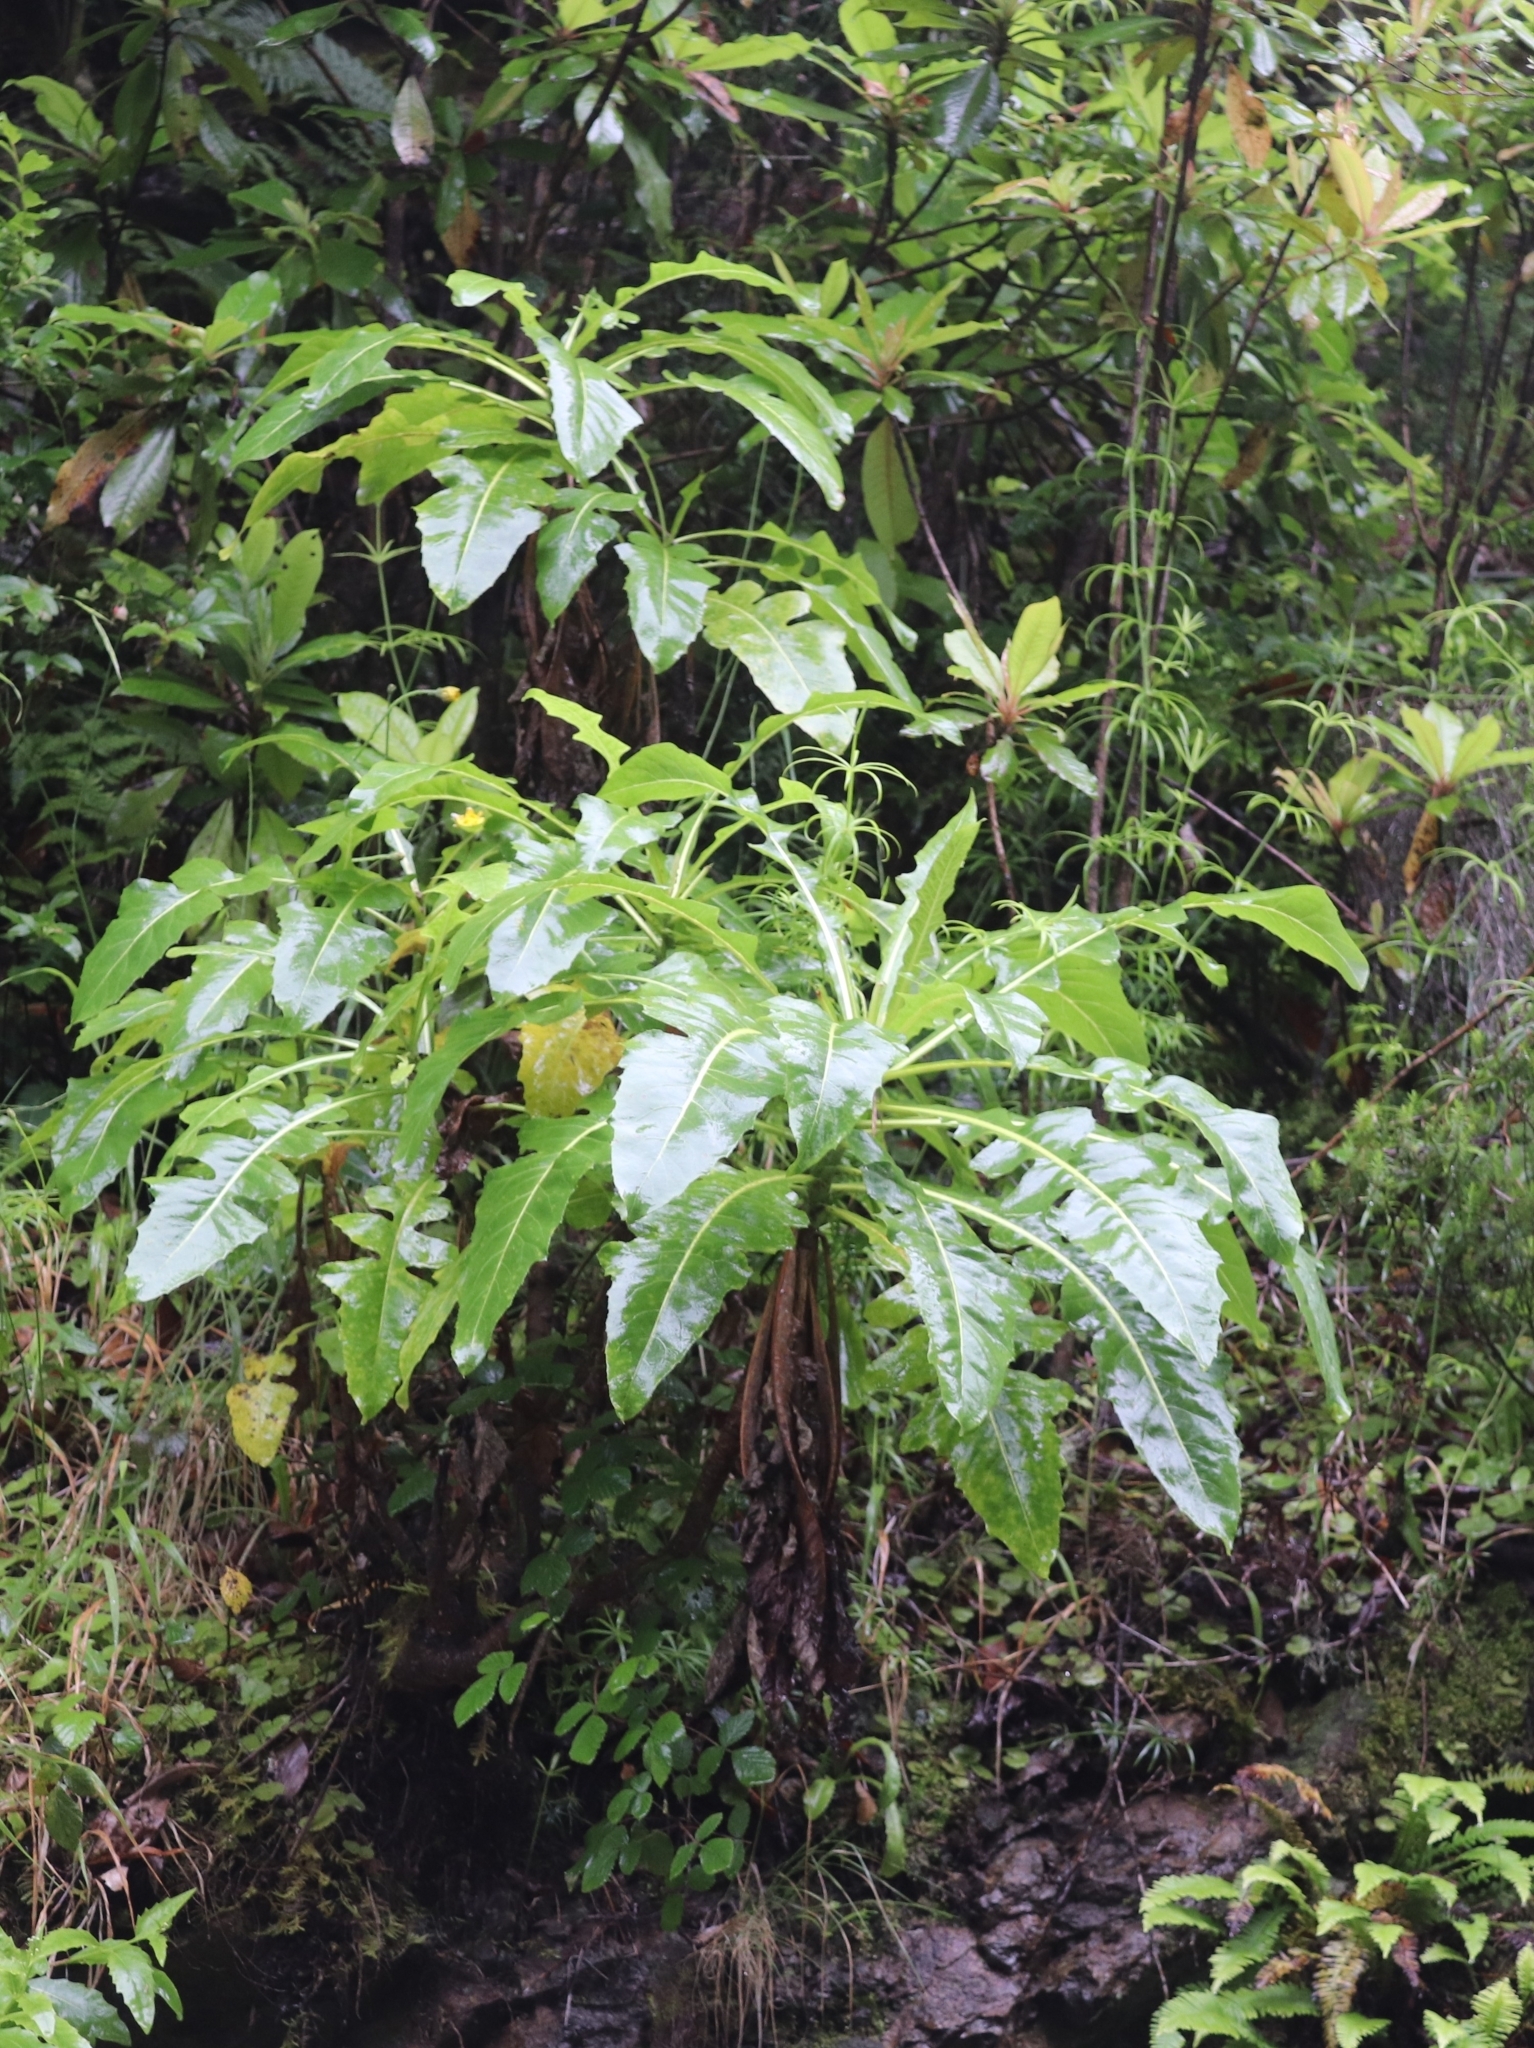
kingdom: Plantae
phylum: Tracheophyta
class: Magnoliopsida
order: Asterales
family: Asteraceae
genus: Sonchus
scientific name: Sonchus fruticosus
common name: Shrubby sow-thistle
